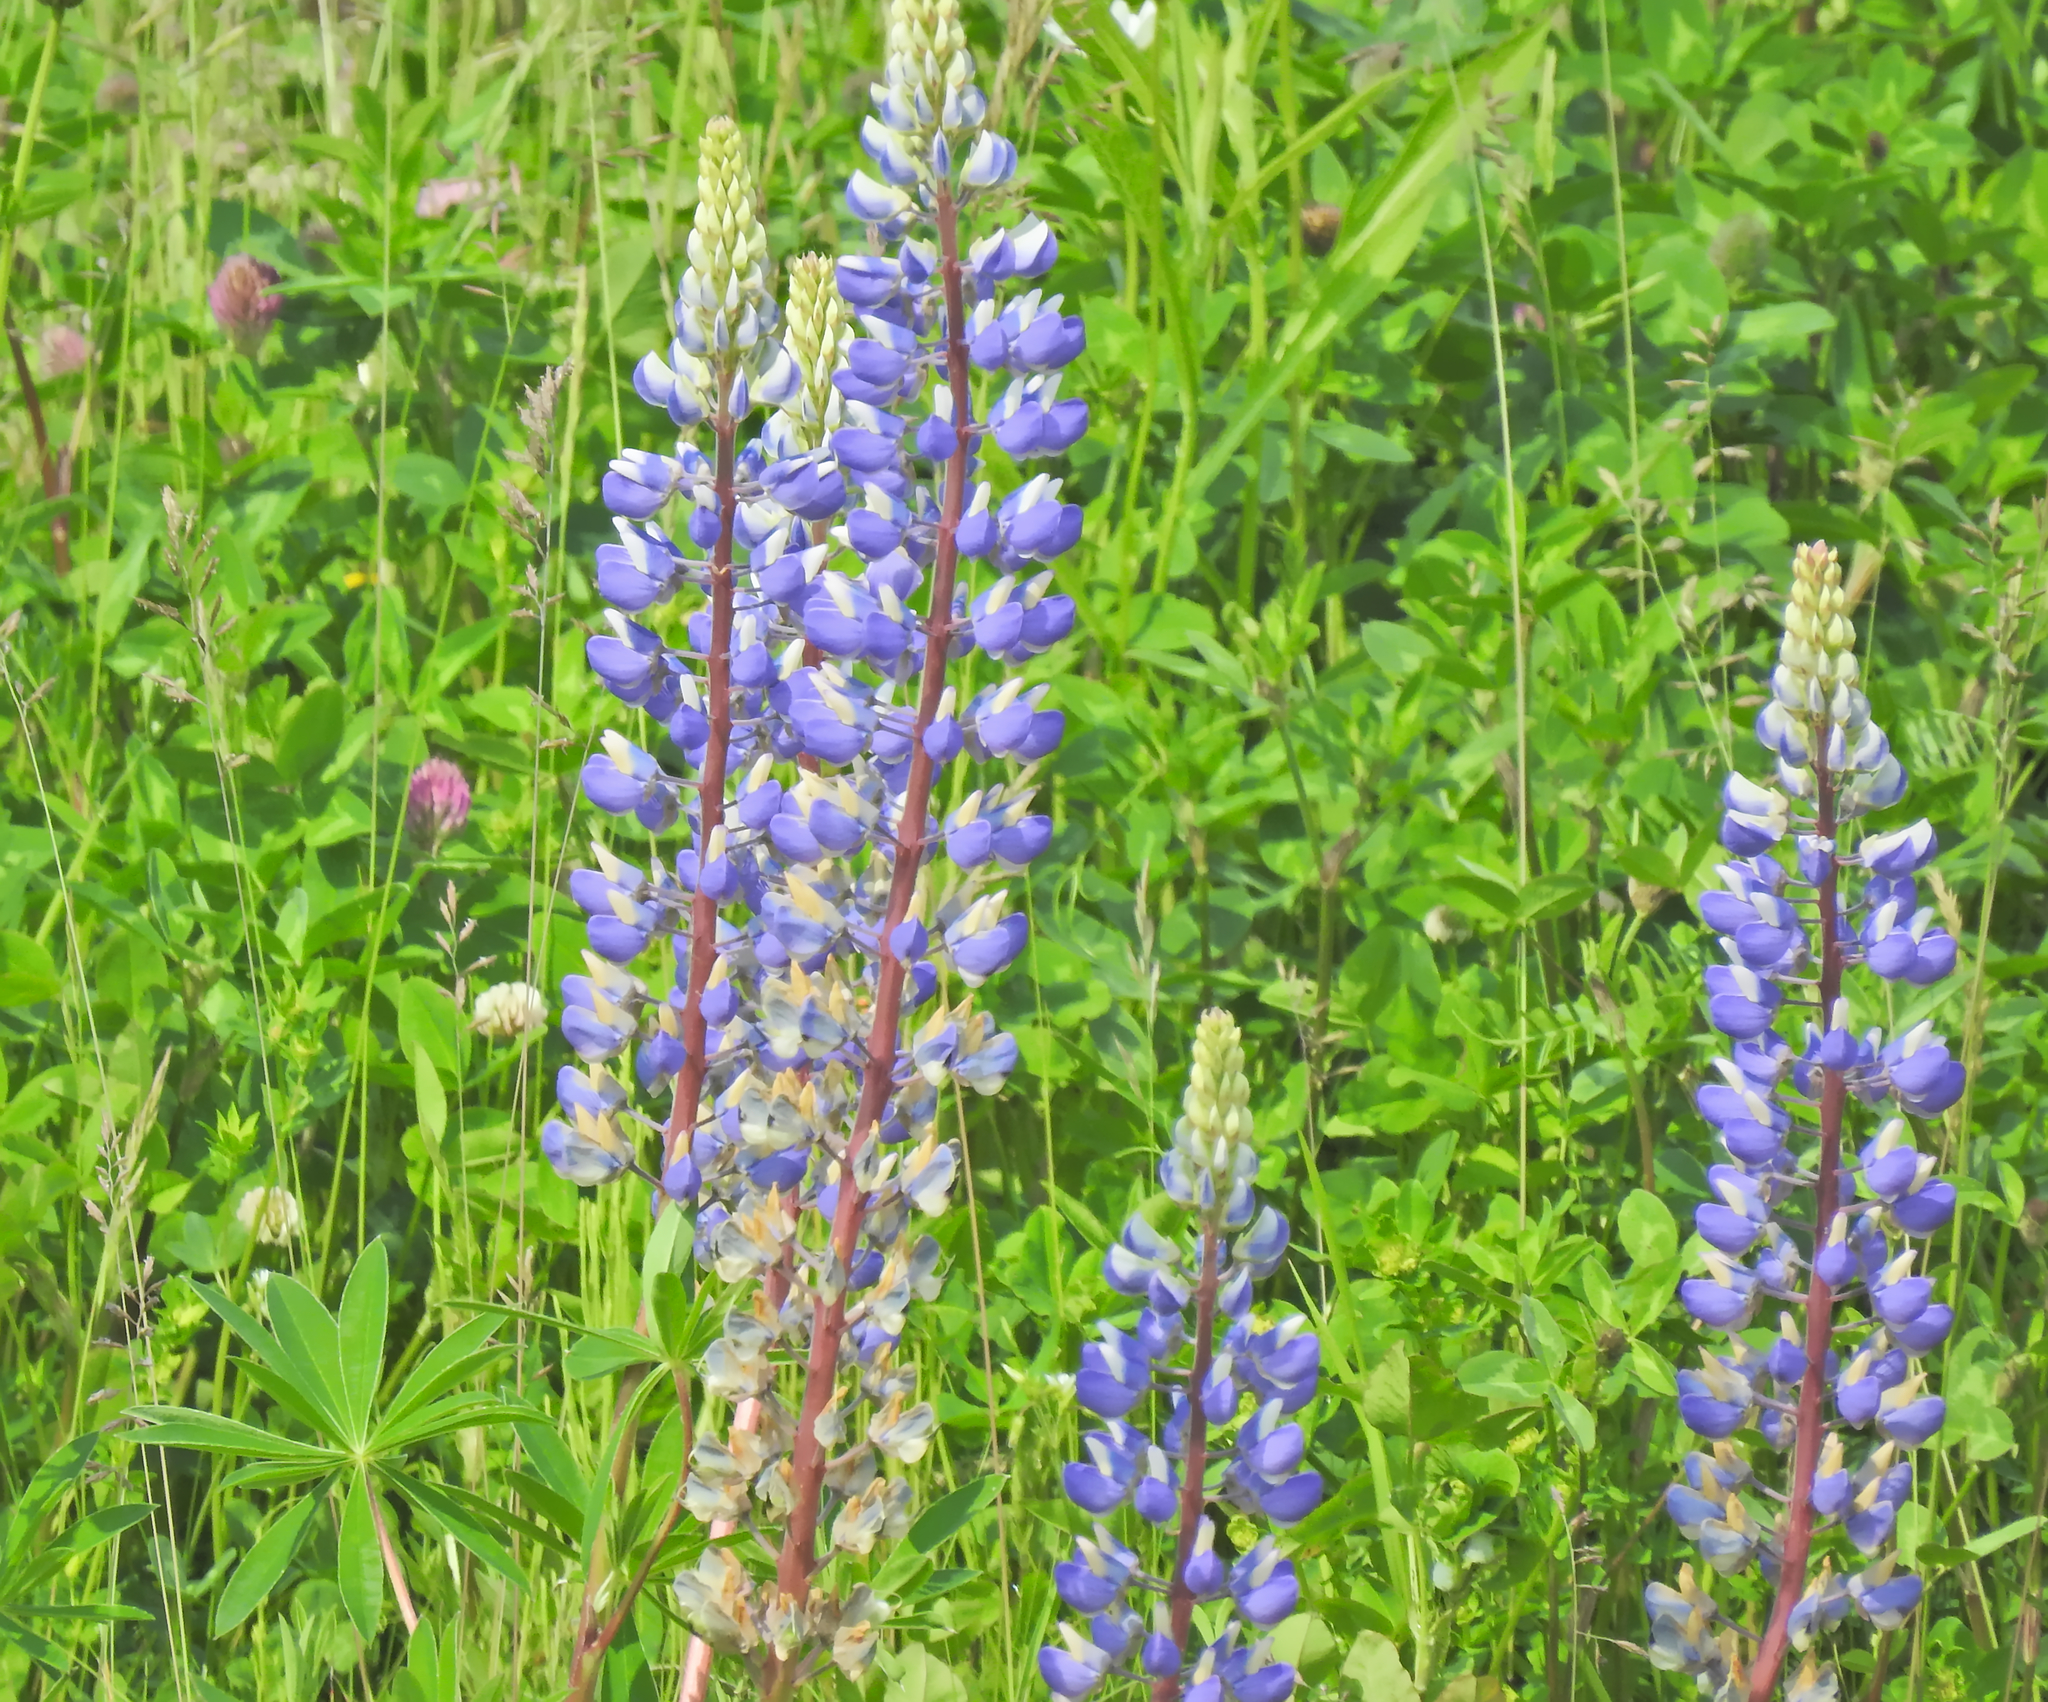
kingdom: Plantae
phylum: Tracheophyta
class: Magnoliopsida
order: Fabales
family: Fabaceae
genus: Lupinus
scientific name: Lupinus polyphyllus
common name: Garden lupin
